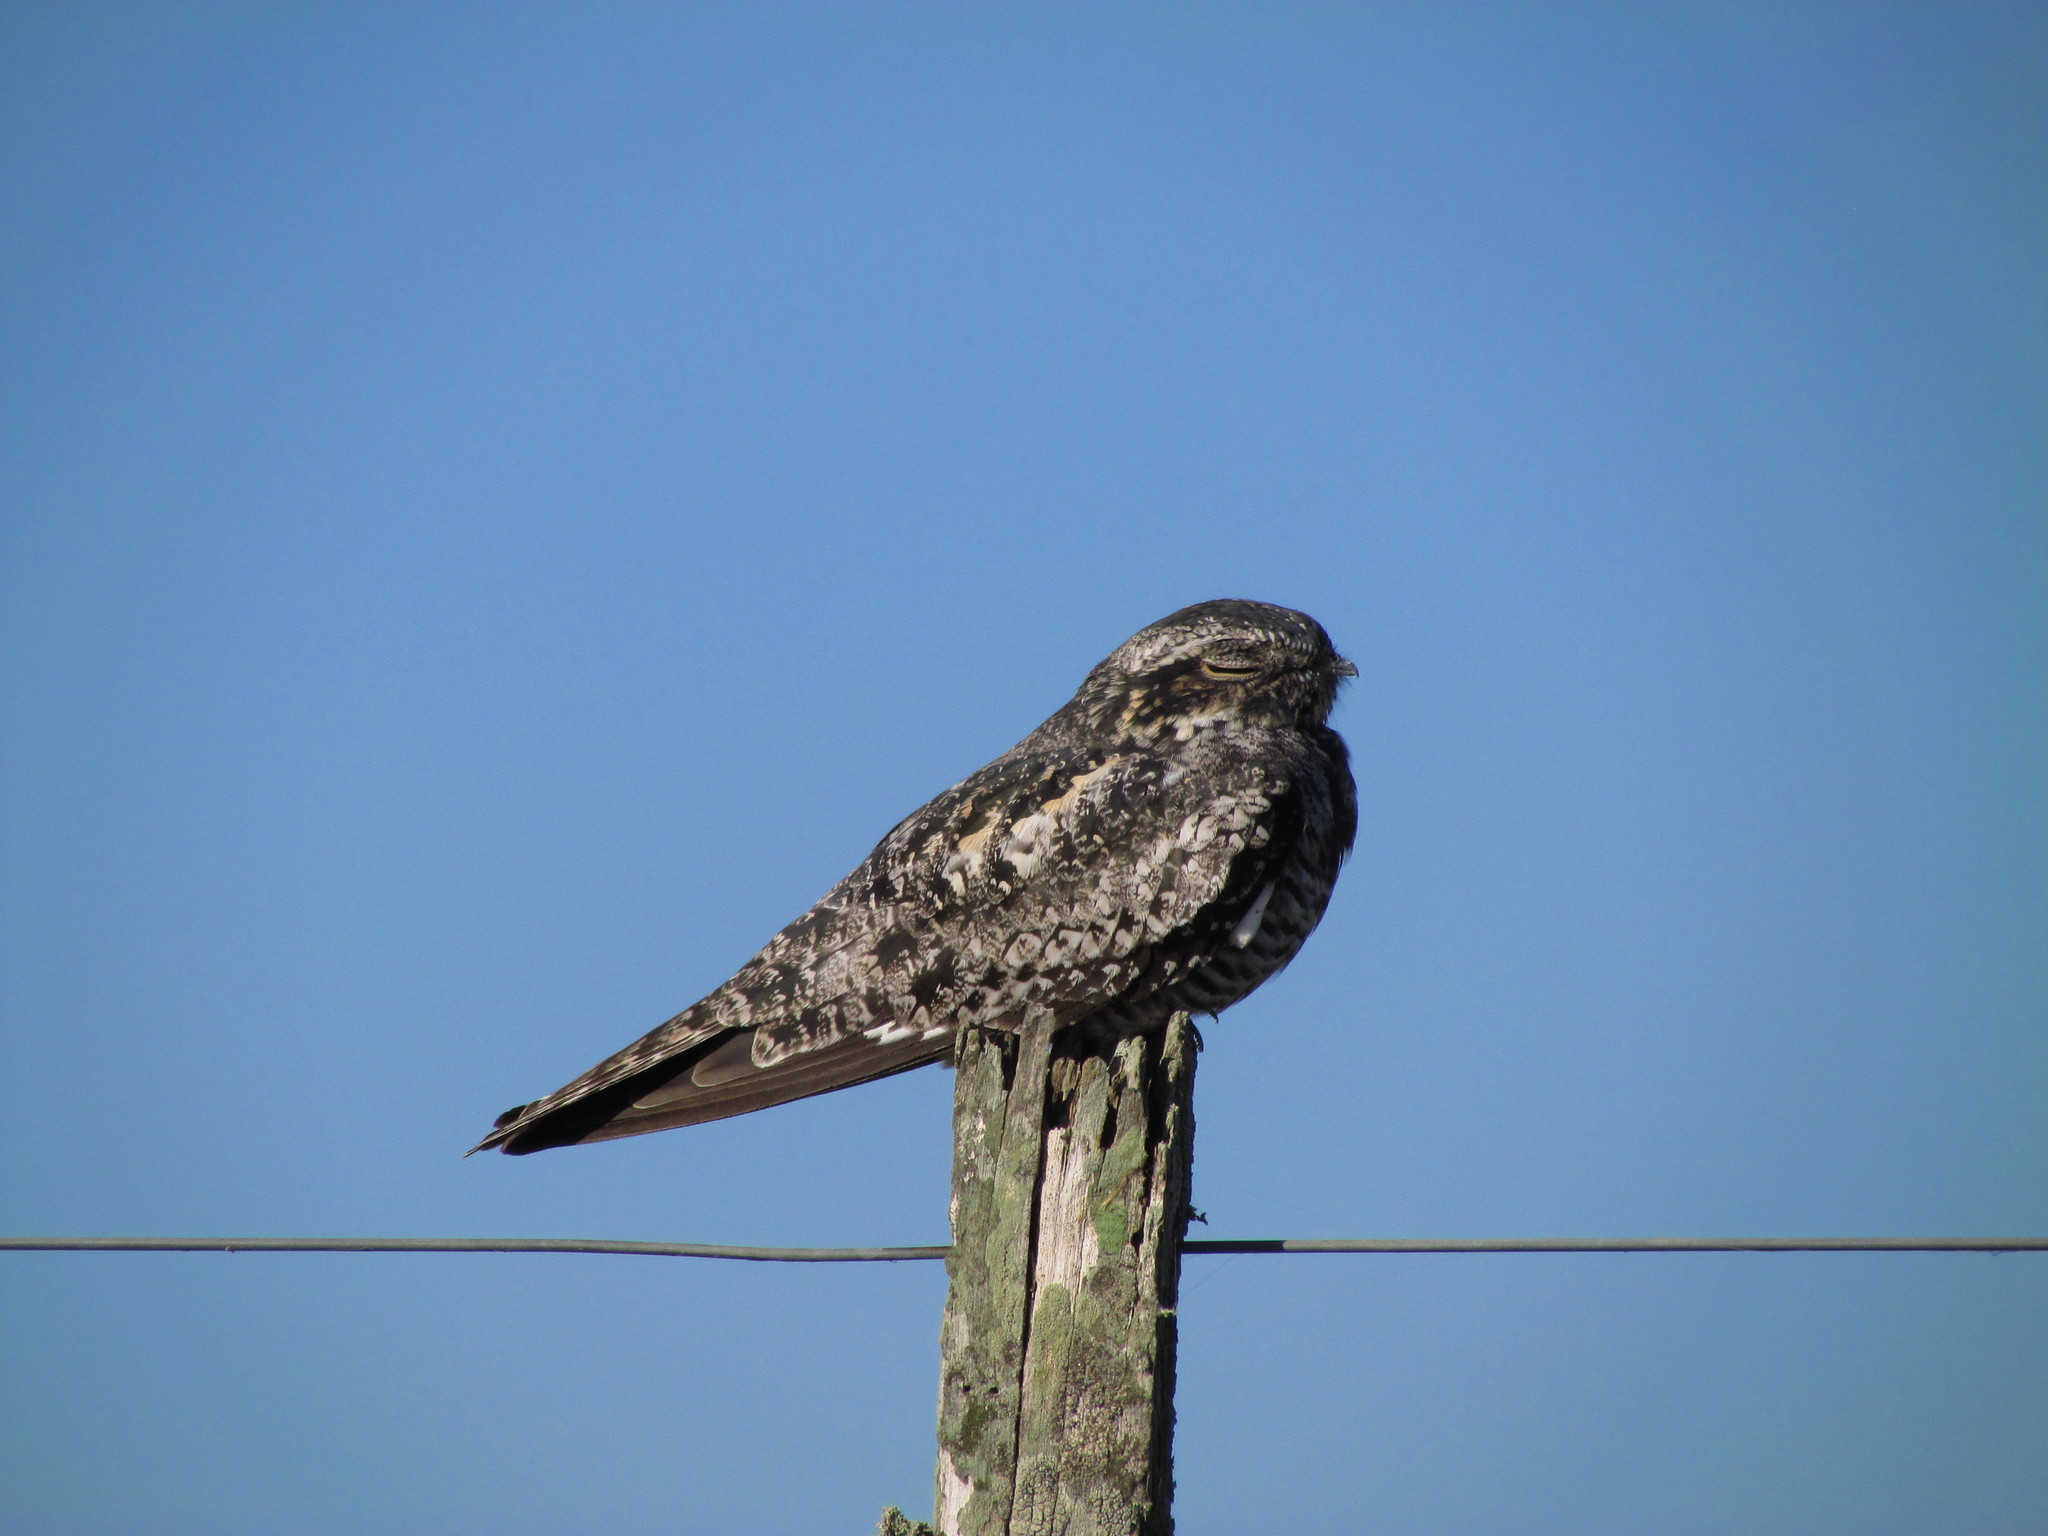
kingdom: Animalia
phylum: Chordata
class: Aves
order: Caprimulgiformes
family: Caprimulgidae
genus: Chordeiles
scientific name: Chordeiles minor
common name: Common nighthawk
